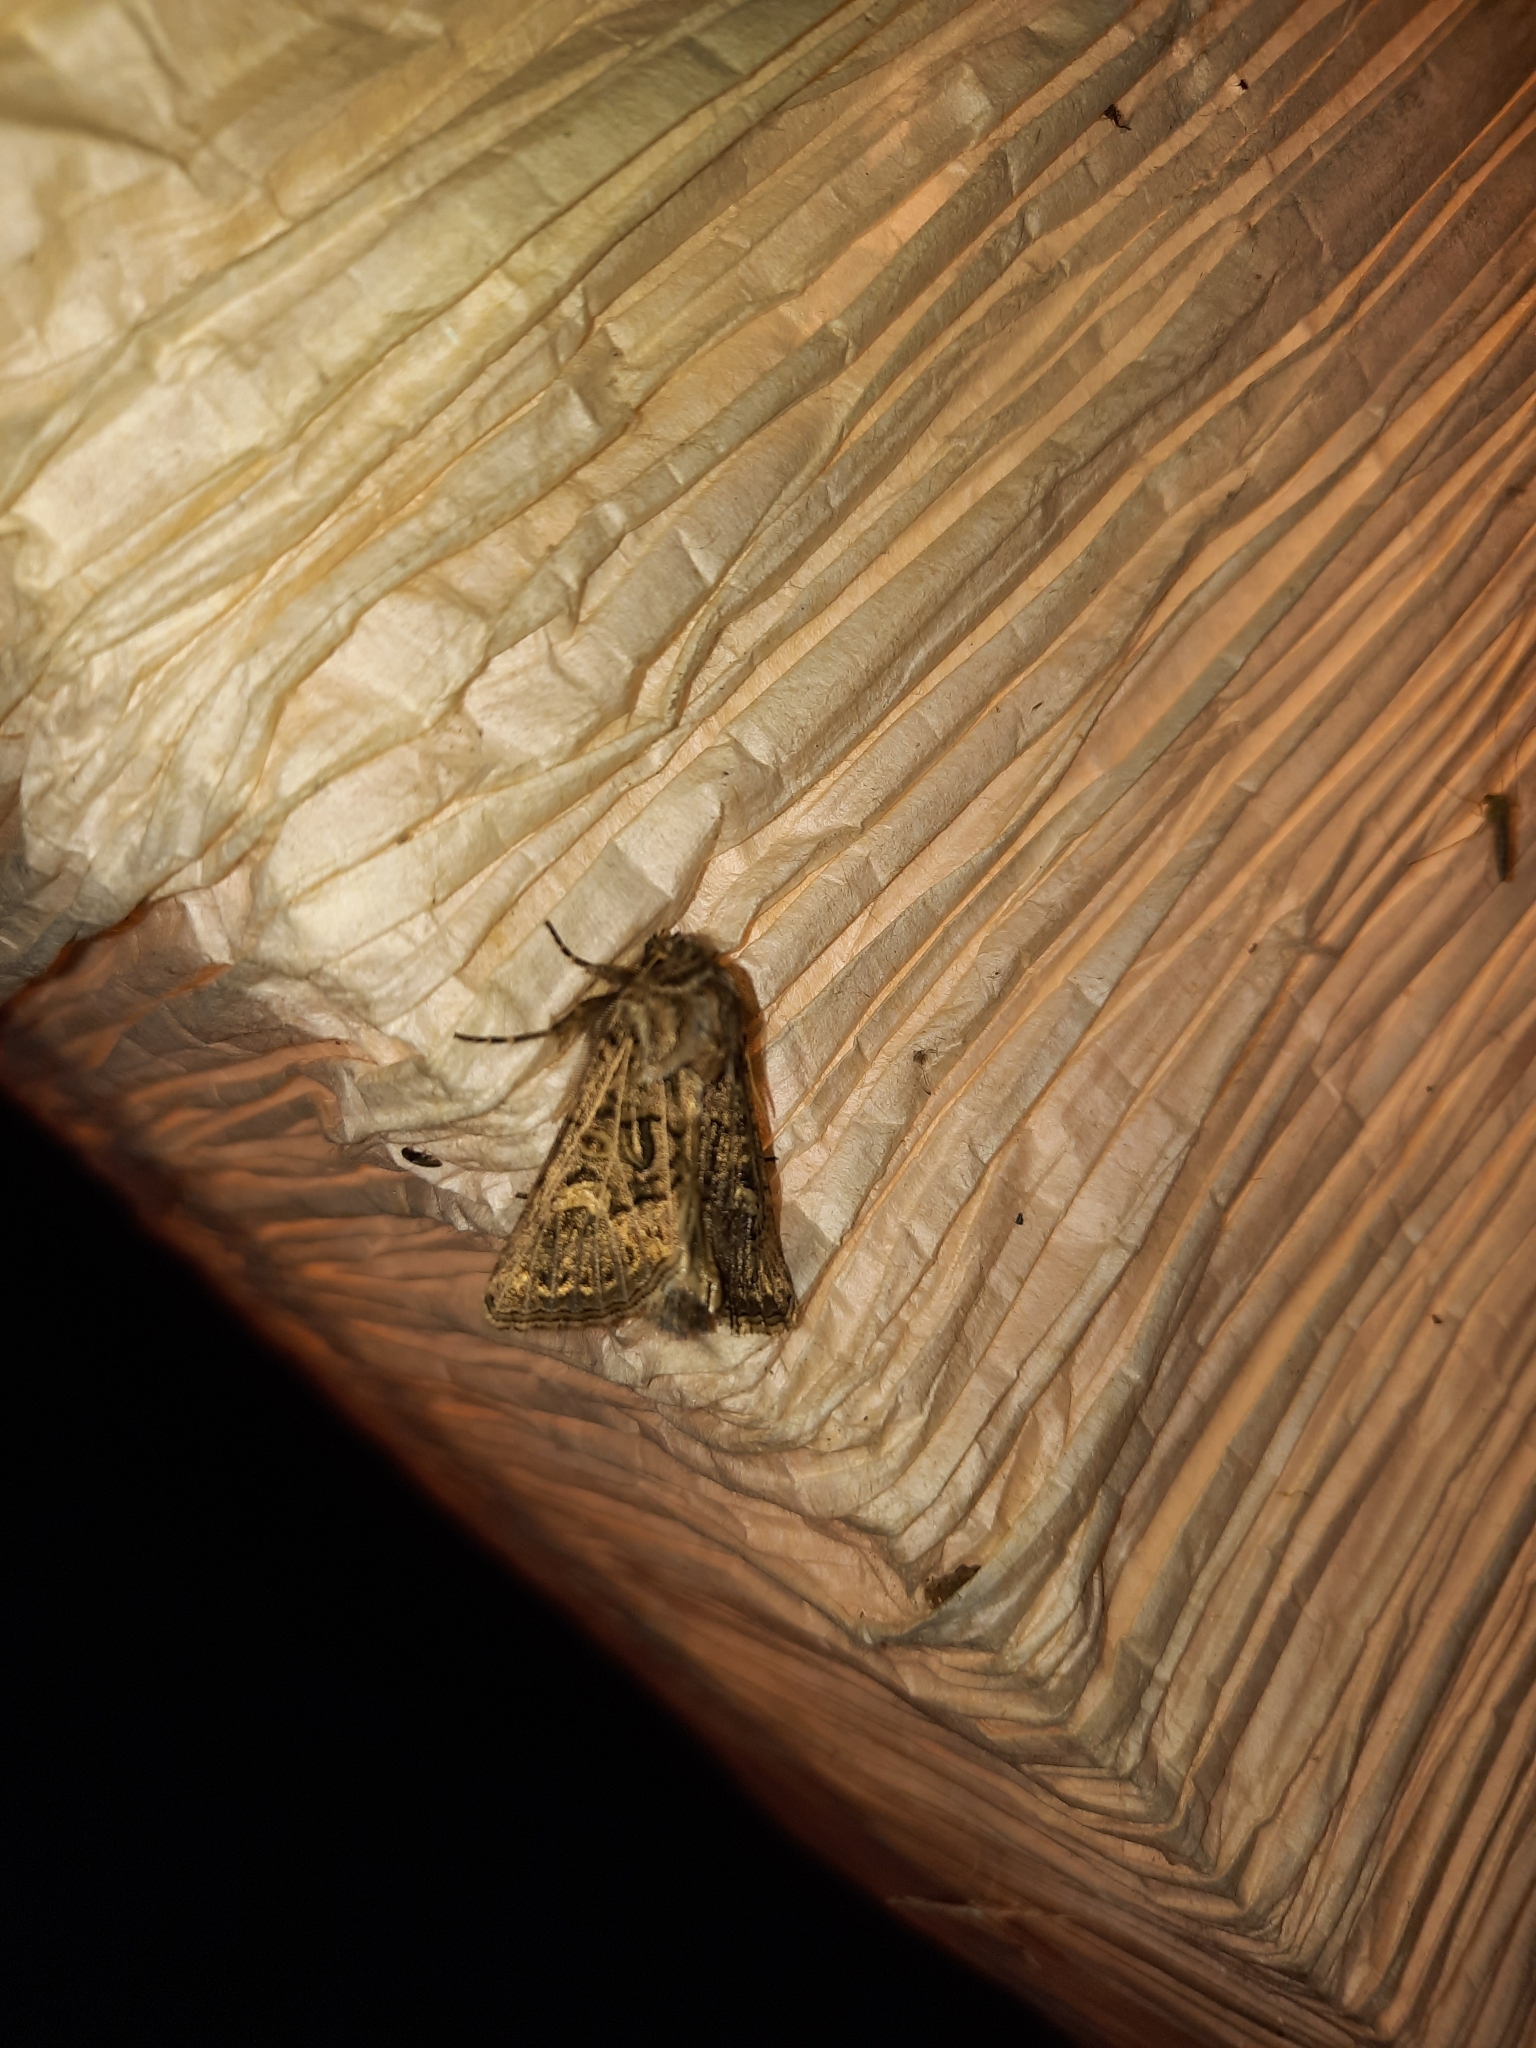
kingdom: Animalia
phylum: Arthropoda
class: Insecta
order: Lepidoptera
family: Noctuidae
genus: Tholera
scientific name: Tholera decimalis
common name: Feathered gothic
